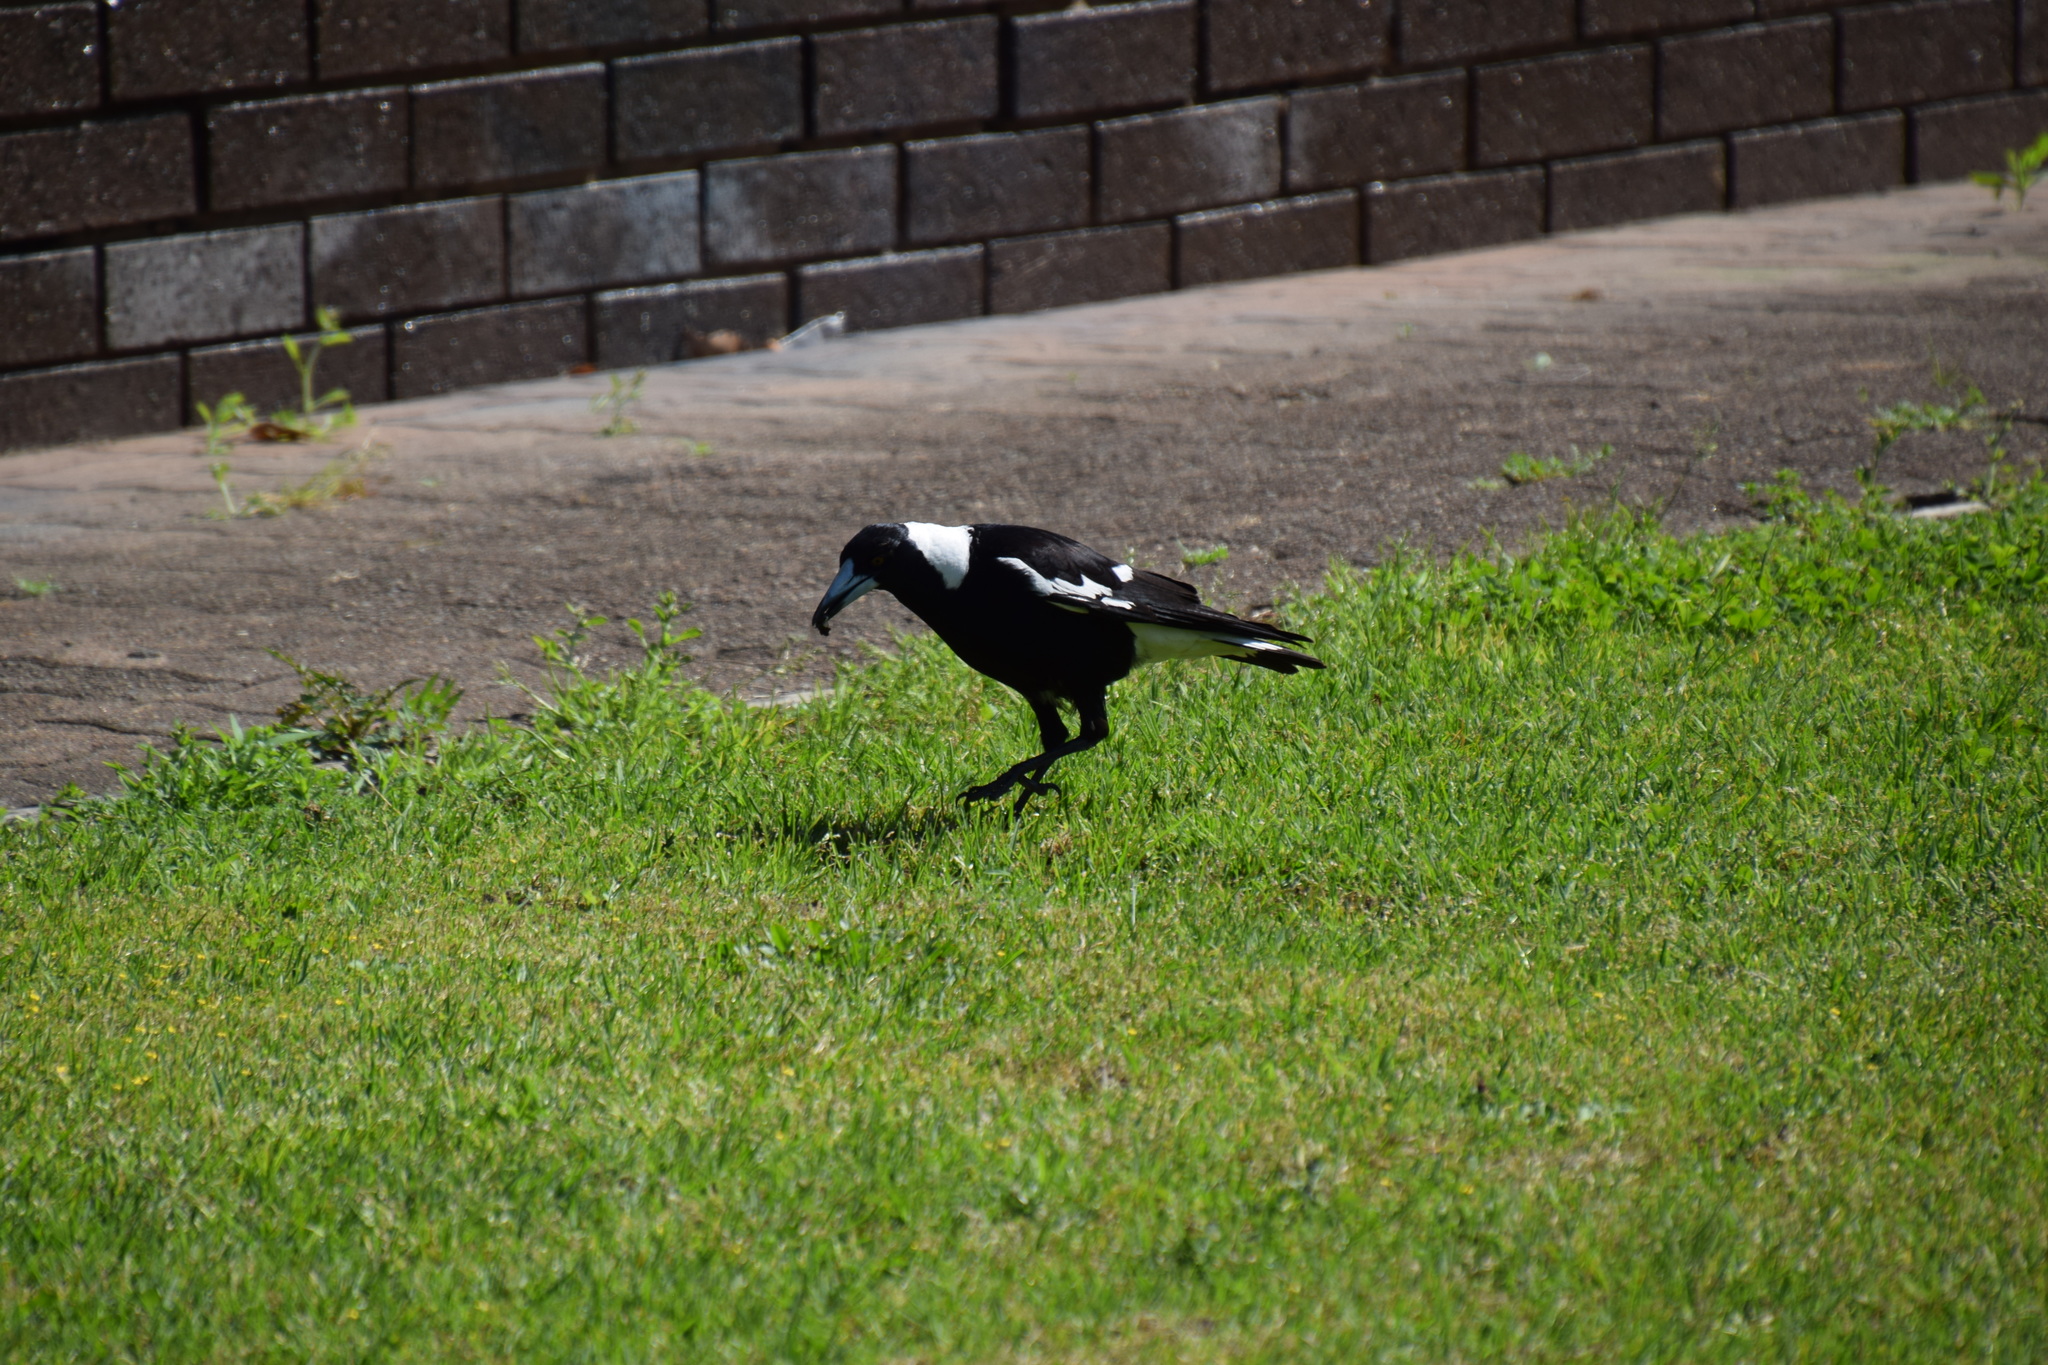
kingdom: Animalia
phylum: Chordata
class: Aves
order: Passeriformes
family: Cracticidae
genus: Gymnorhina
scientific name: Gymnorhina tibicen
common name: Australian magpie
